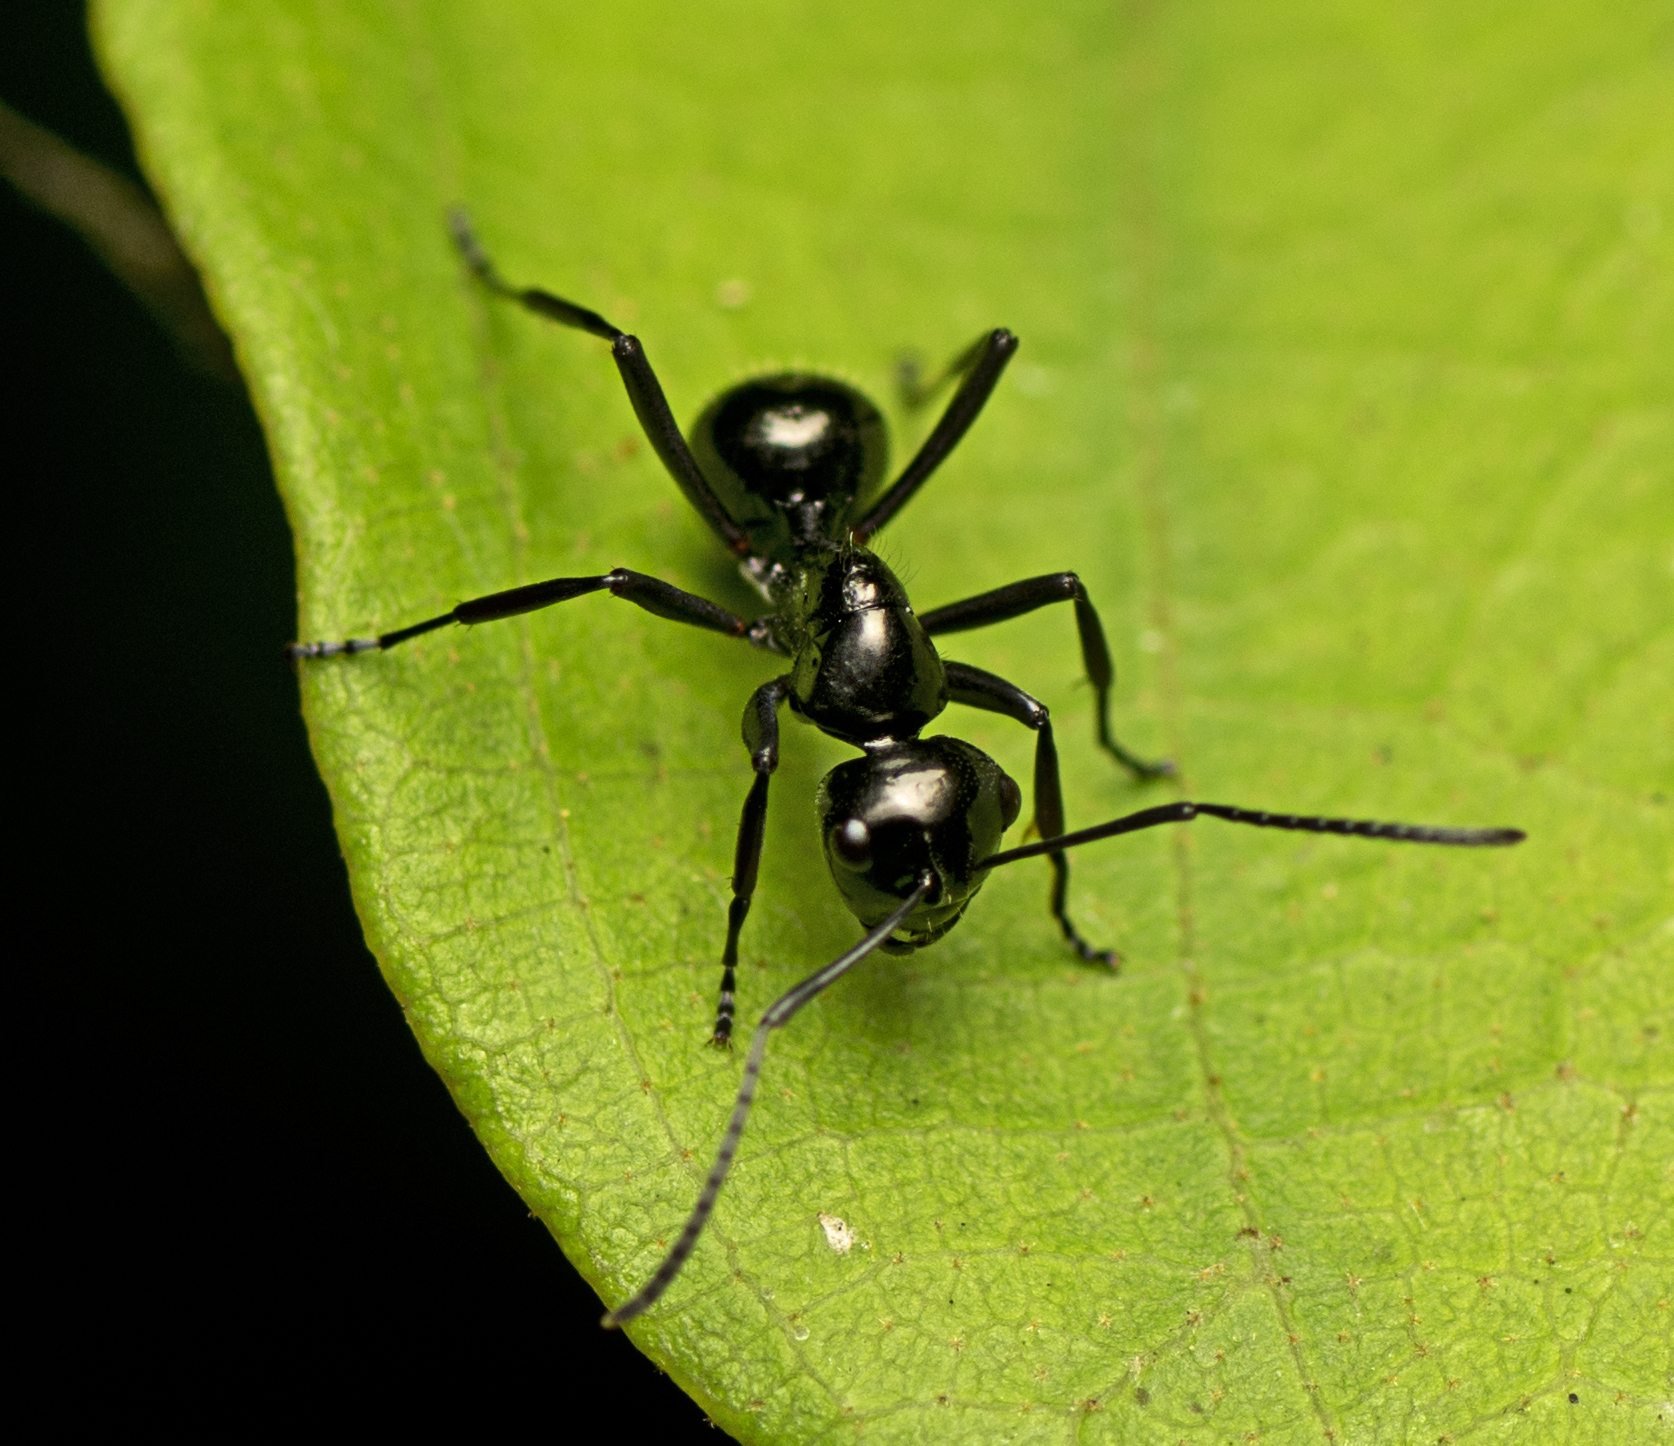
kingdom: Animalia
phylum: Arthropoda
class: Insecta
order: Hymenoptera
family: Formicidae
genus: Polyrhachis
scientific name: Polyrhachis pilosa
